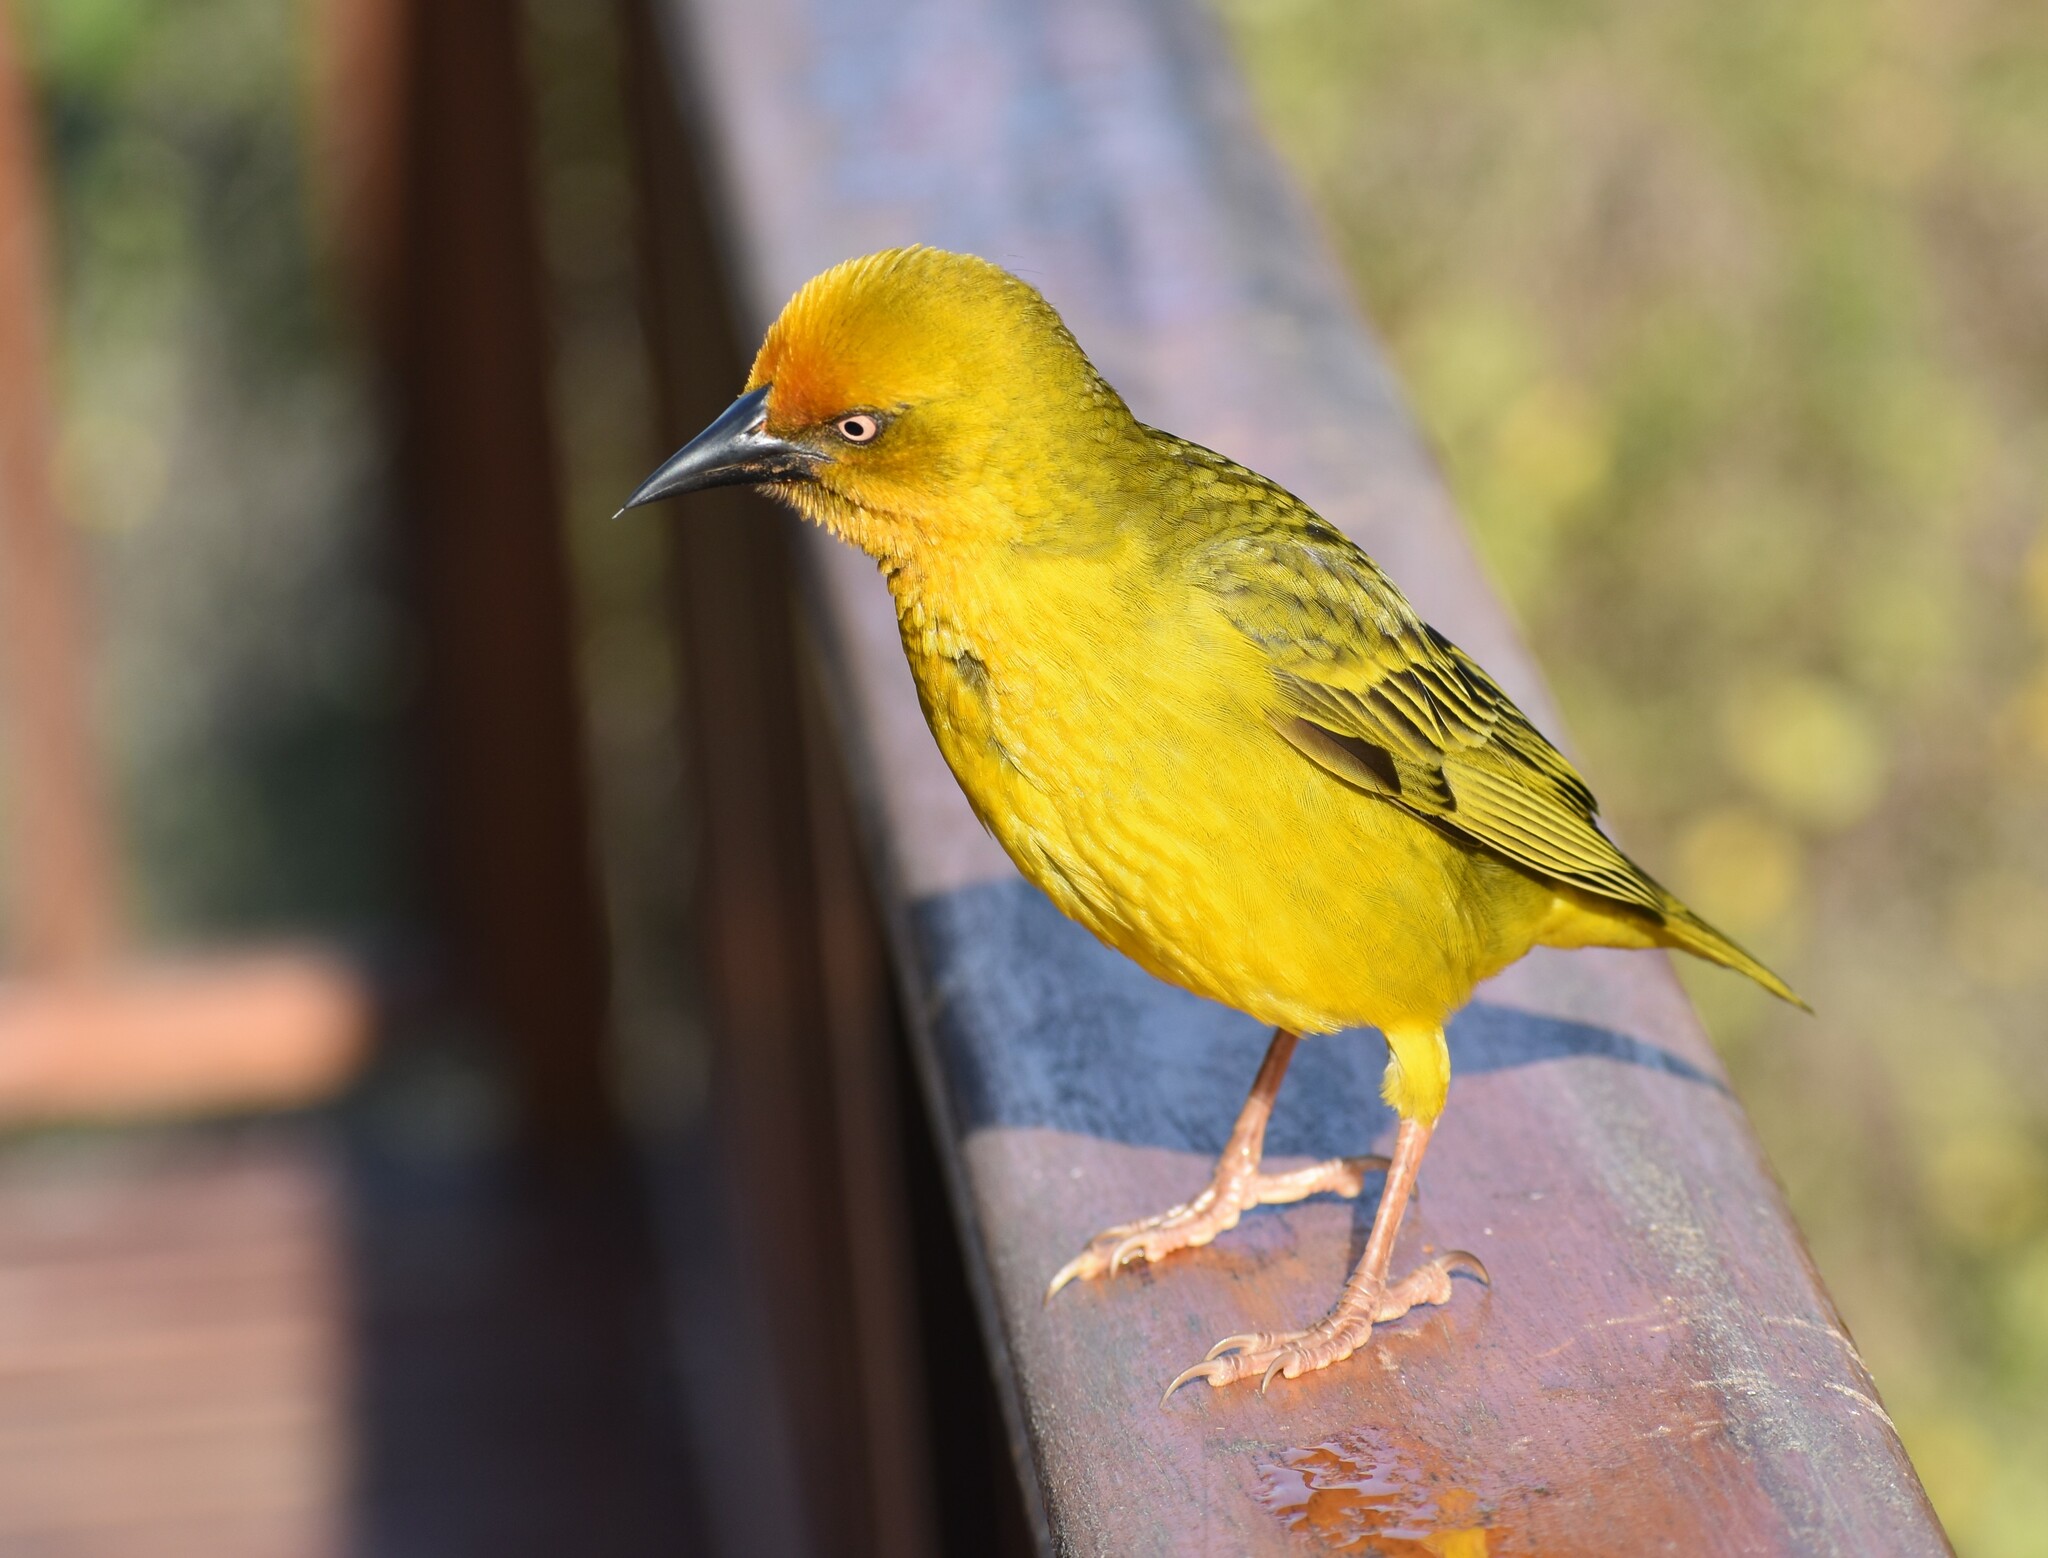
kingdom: Animalia
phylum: Chordata
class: Aves
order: Passeriformes
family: Ploceidae
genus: Ploceus
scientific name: Ploceus capensis
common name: Cape weaver
